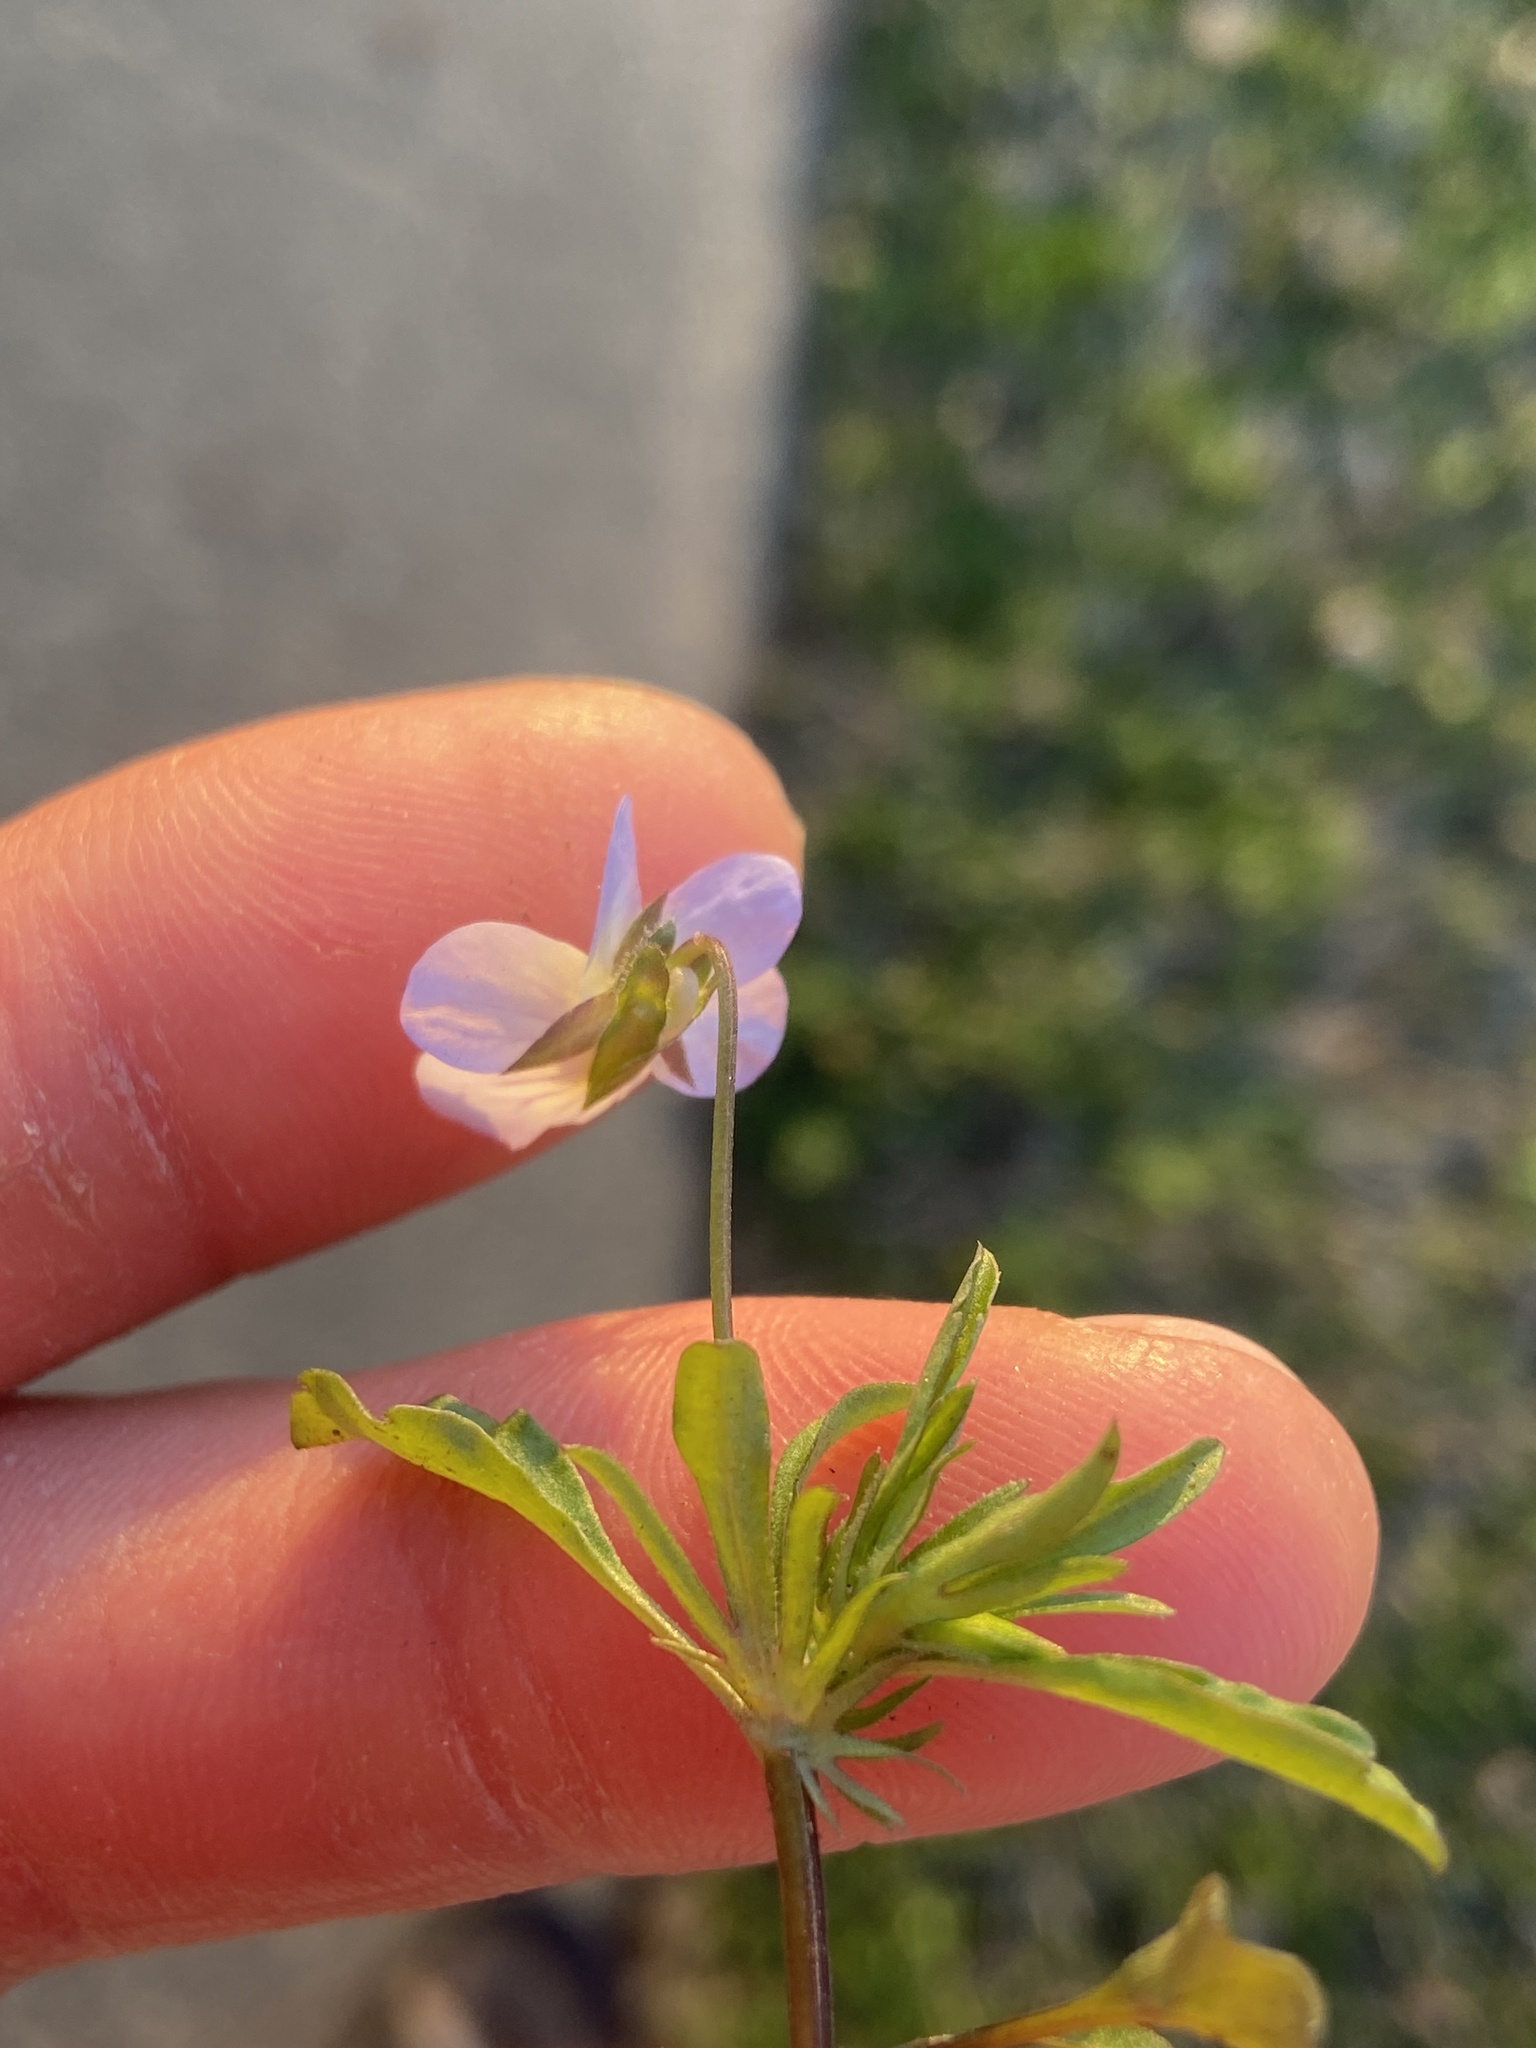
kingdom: Plantae
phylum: Tracheophyta
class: Magnoliopsida
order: Malpighiales
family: Violaceae
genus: Viola
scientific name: Viola rafinesquei
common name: American field pansy
